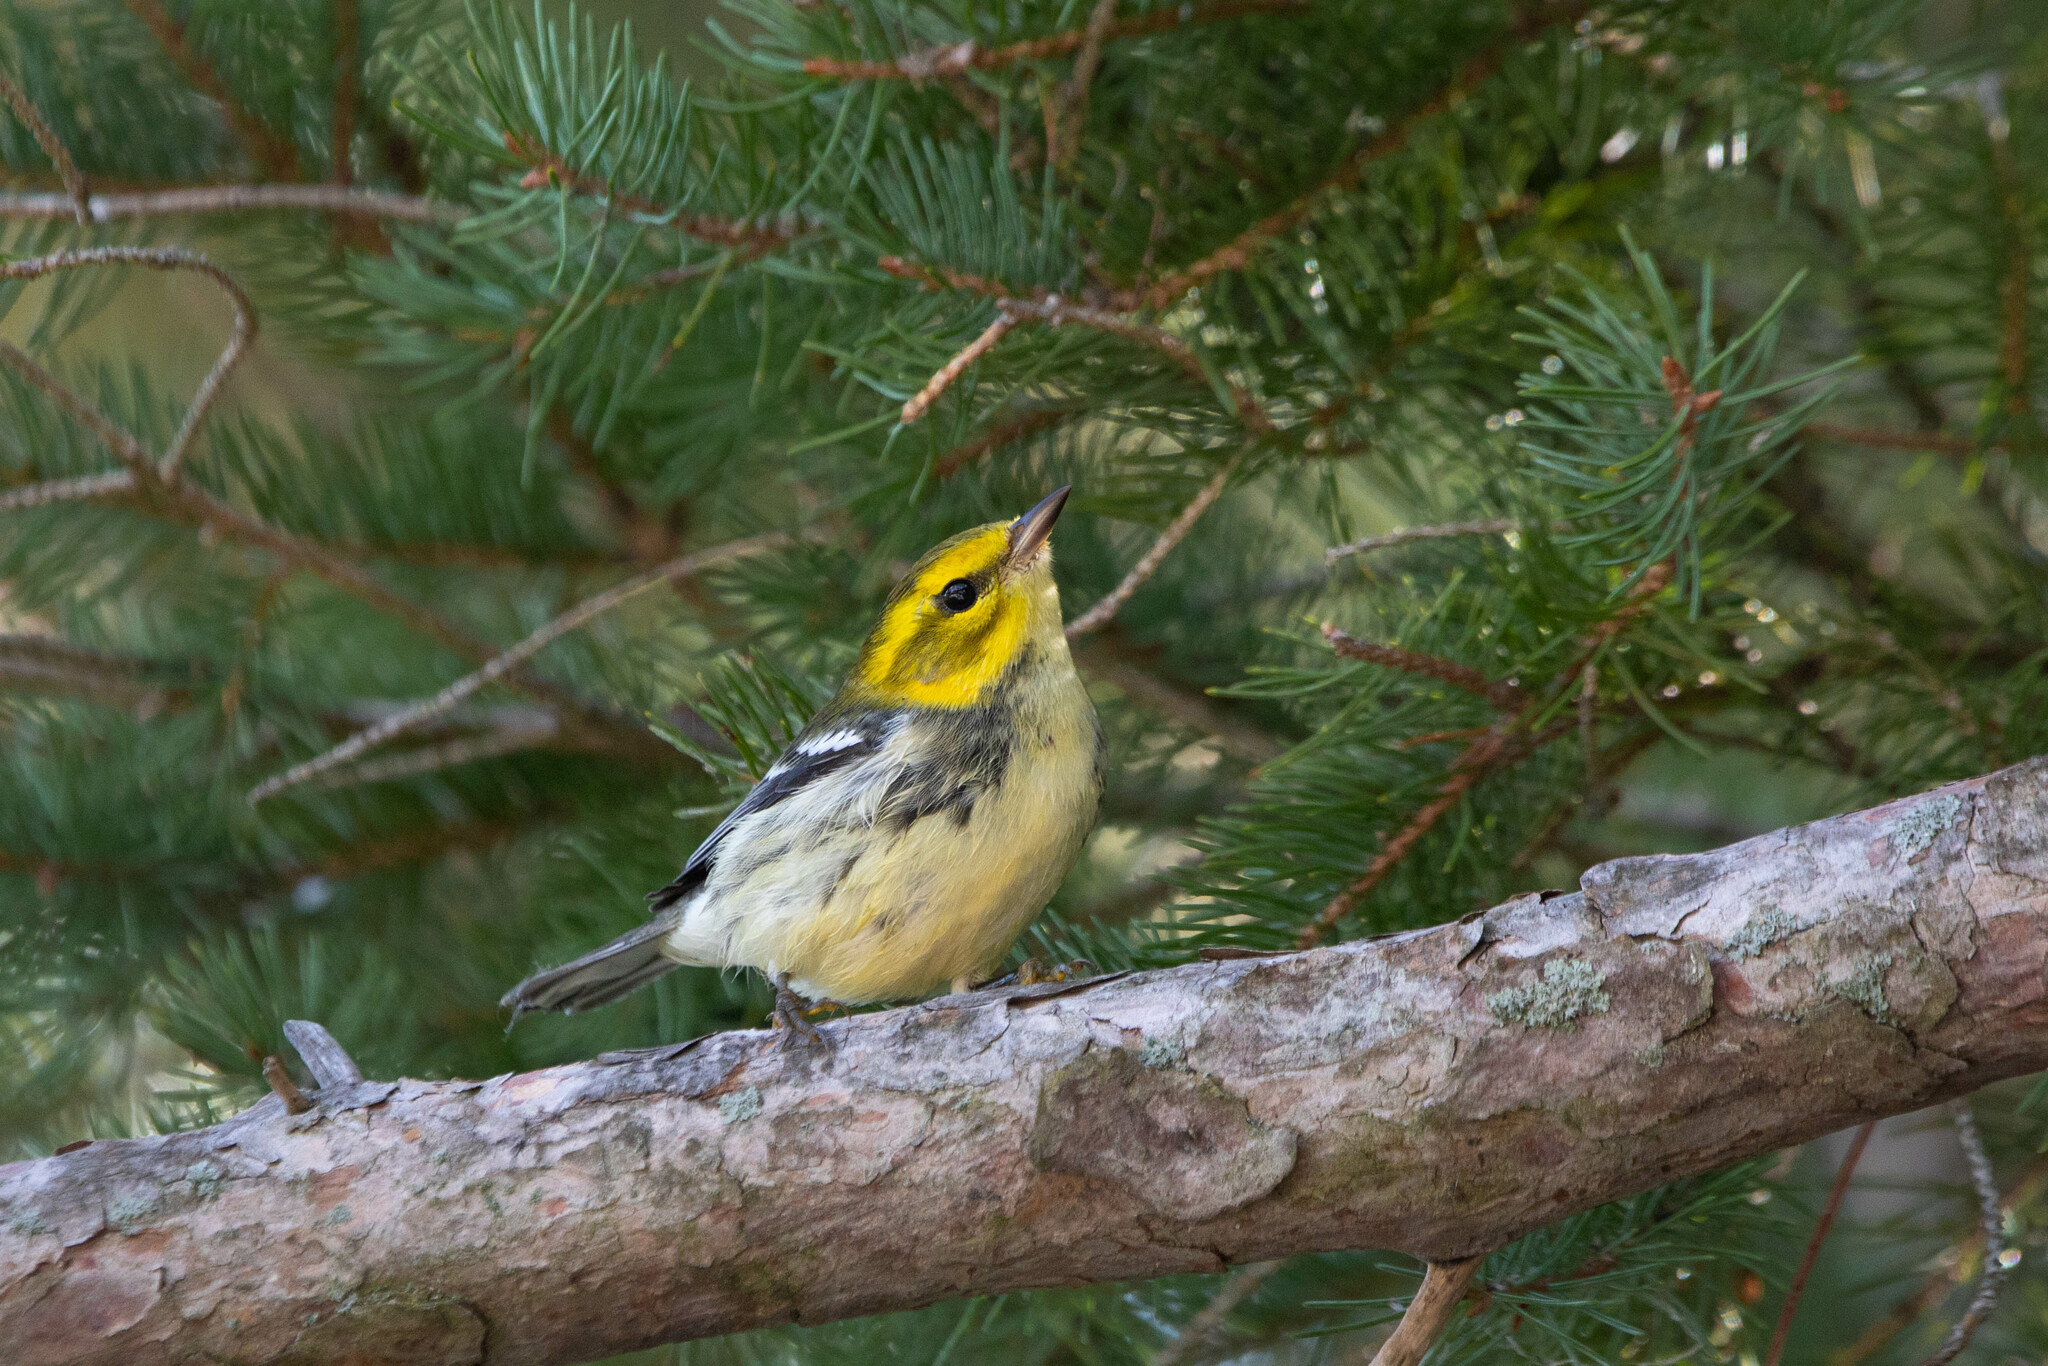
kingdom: Animalia
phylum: Chordata
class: Aves
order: Passeriformes
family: Parulidae
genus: Setophaga
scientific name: Setophaga virens
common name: Black-throated green warbler
